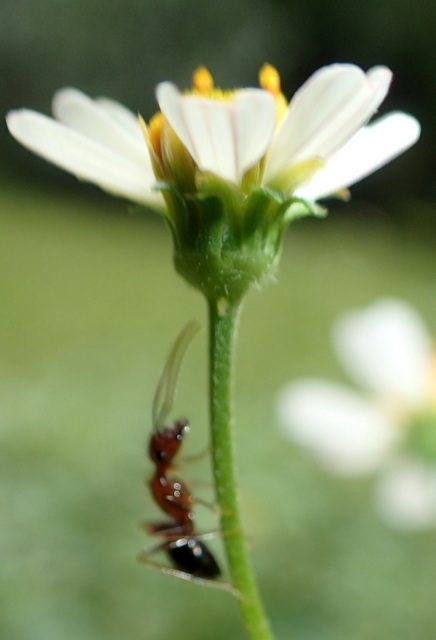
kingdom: Animalia
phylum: Arthropoda
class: Insecta
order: Hymenoptera
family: Formicidae
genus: Camponotus
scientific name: Camponotus floridanus
